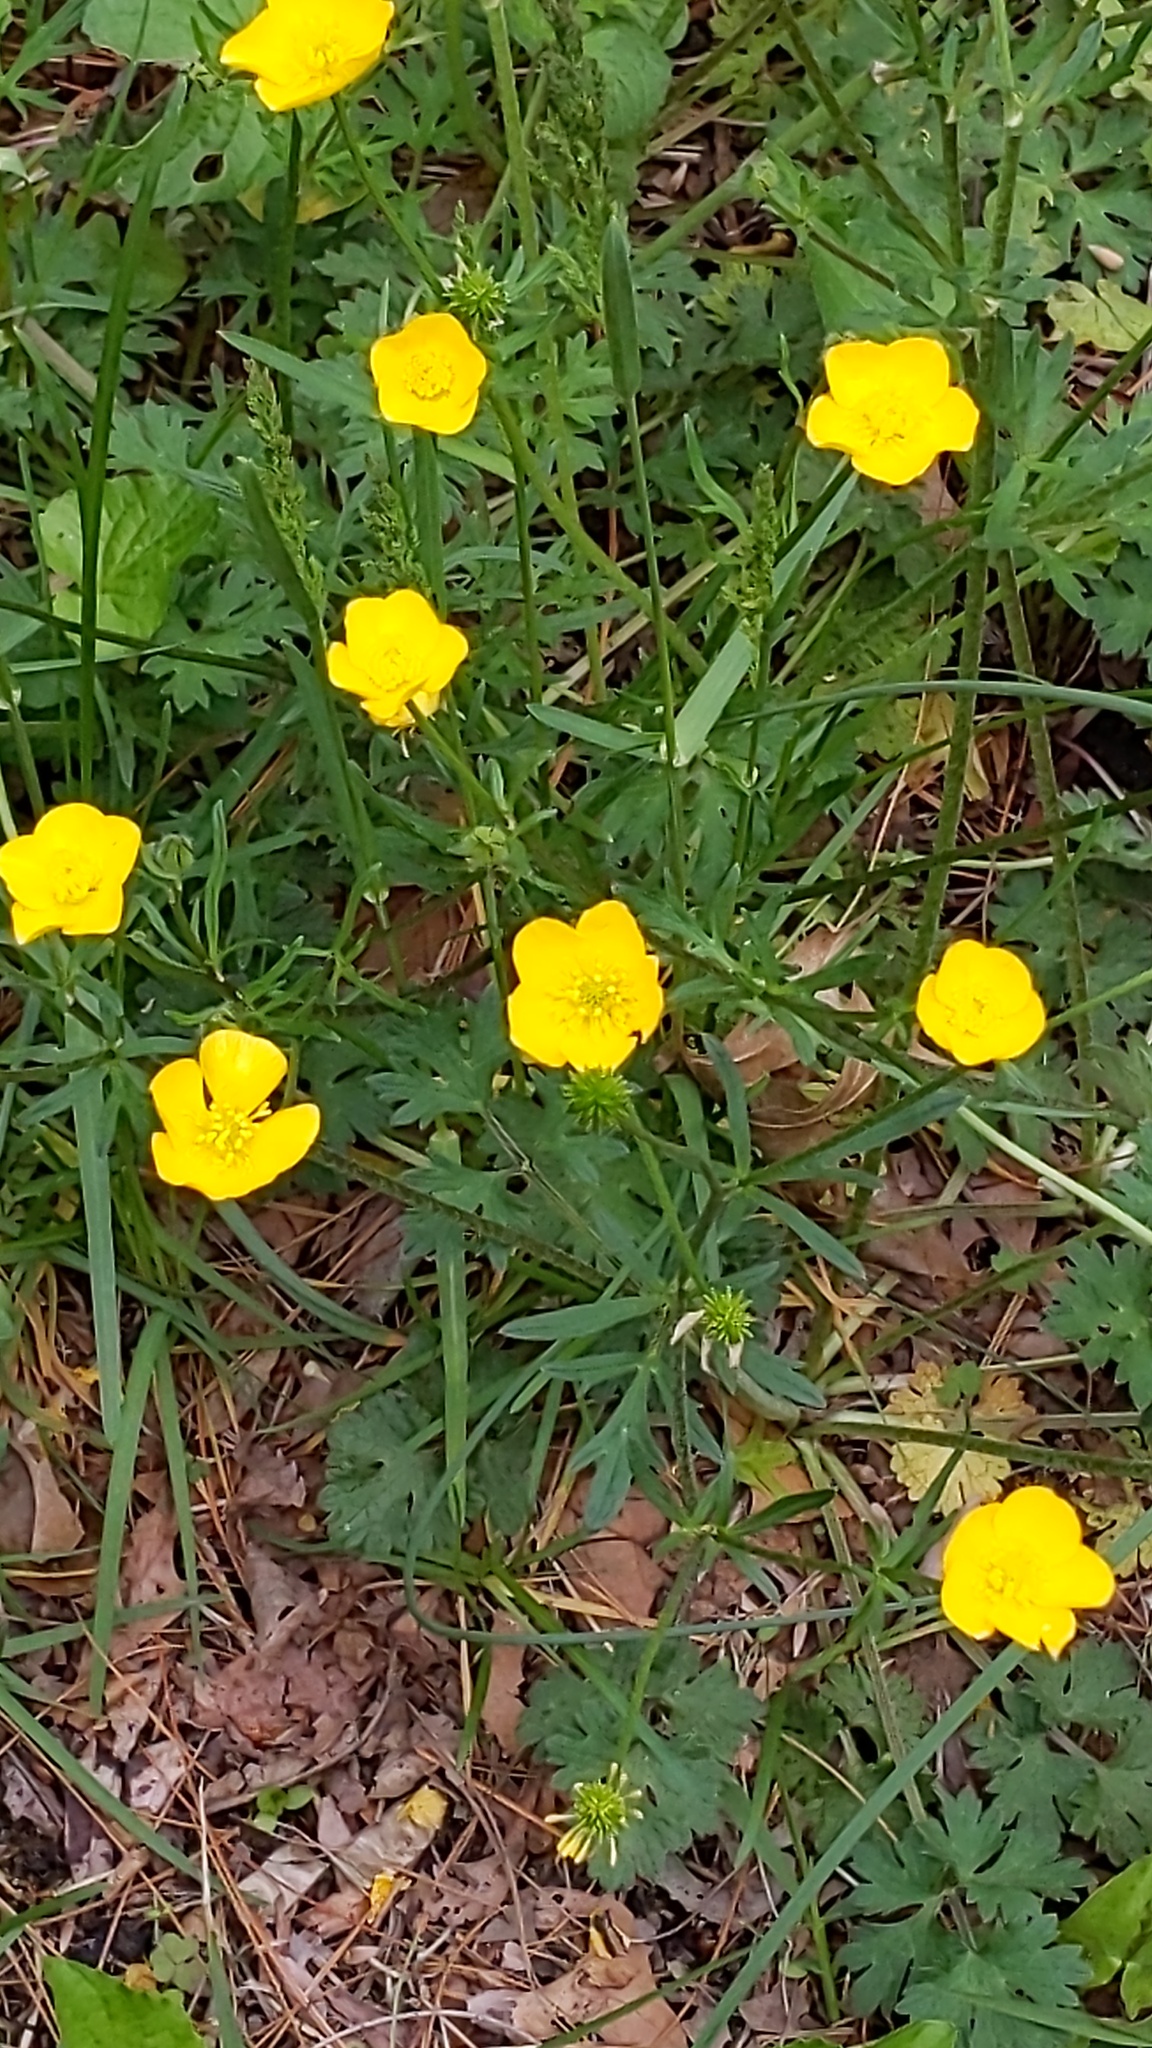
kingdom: Plantae
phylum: Tracheophyta
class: Magnoliopsida
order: Ranunculales
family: Ranunculaceae
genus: Ranunculus
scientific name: Ranunculus acris
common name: Meadow buttercup
